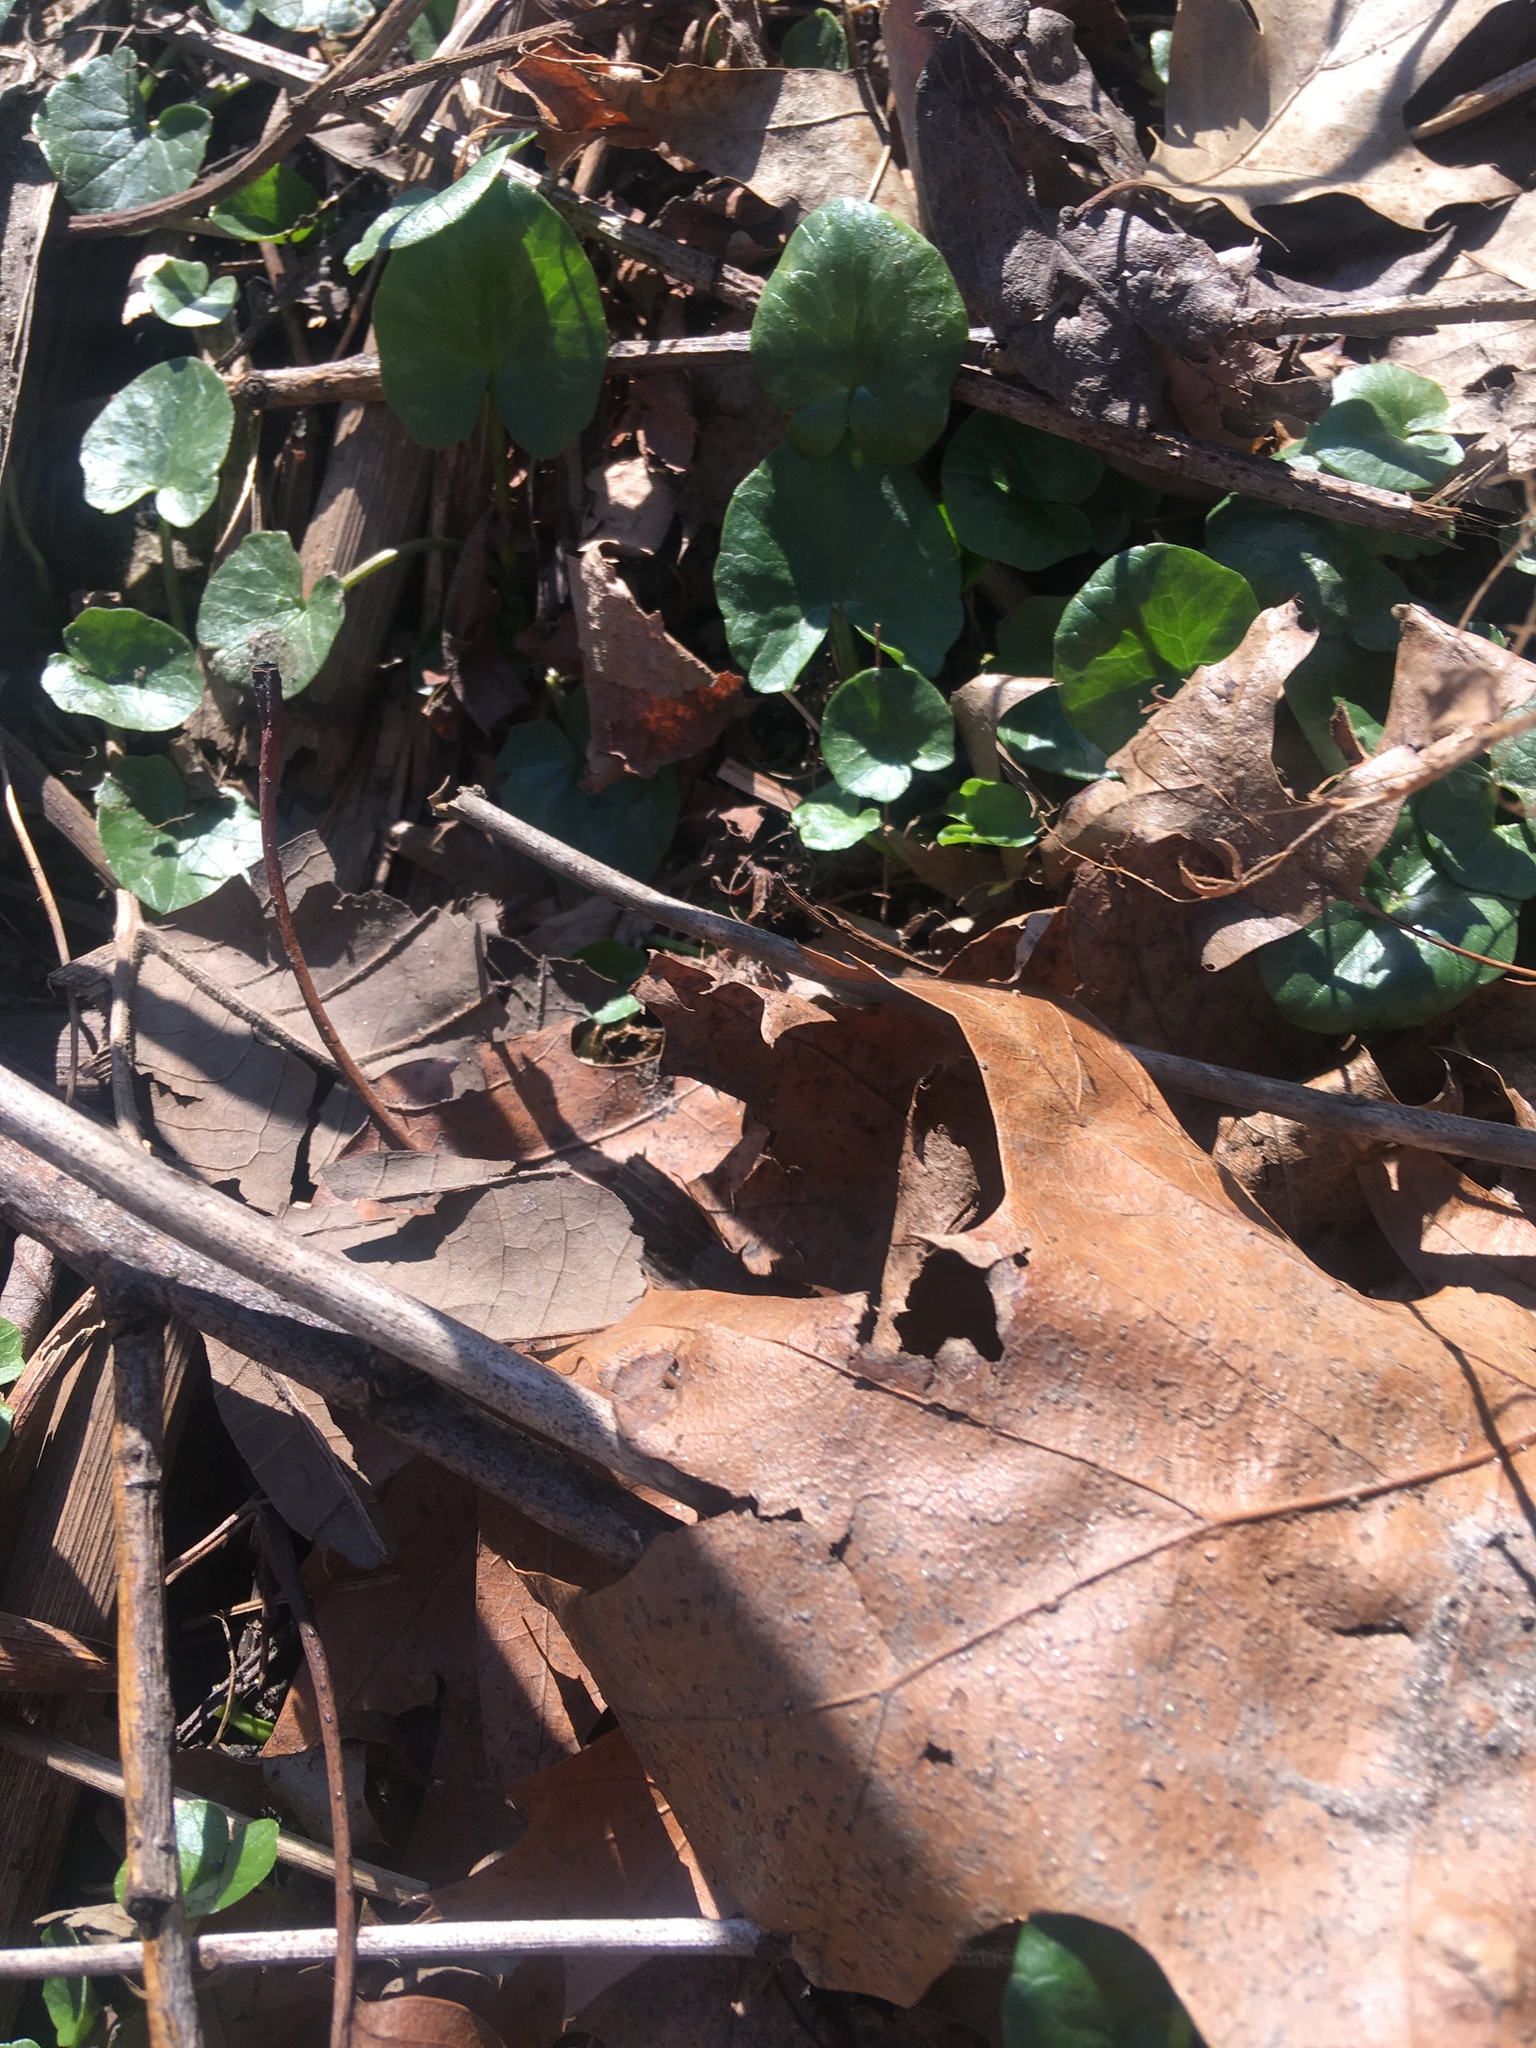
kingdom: Plantae
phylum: Tracheophyta
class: Magnoliopsida
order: Ranunculales
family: Ranunculaceae
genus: Ficaria
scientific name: Ficaria verna
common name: Lesser celandine
